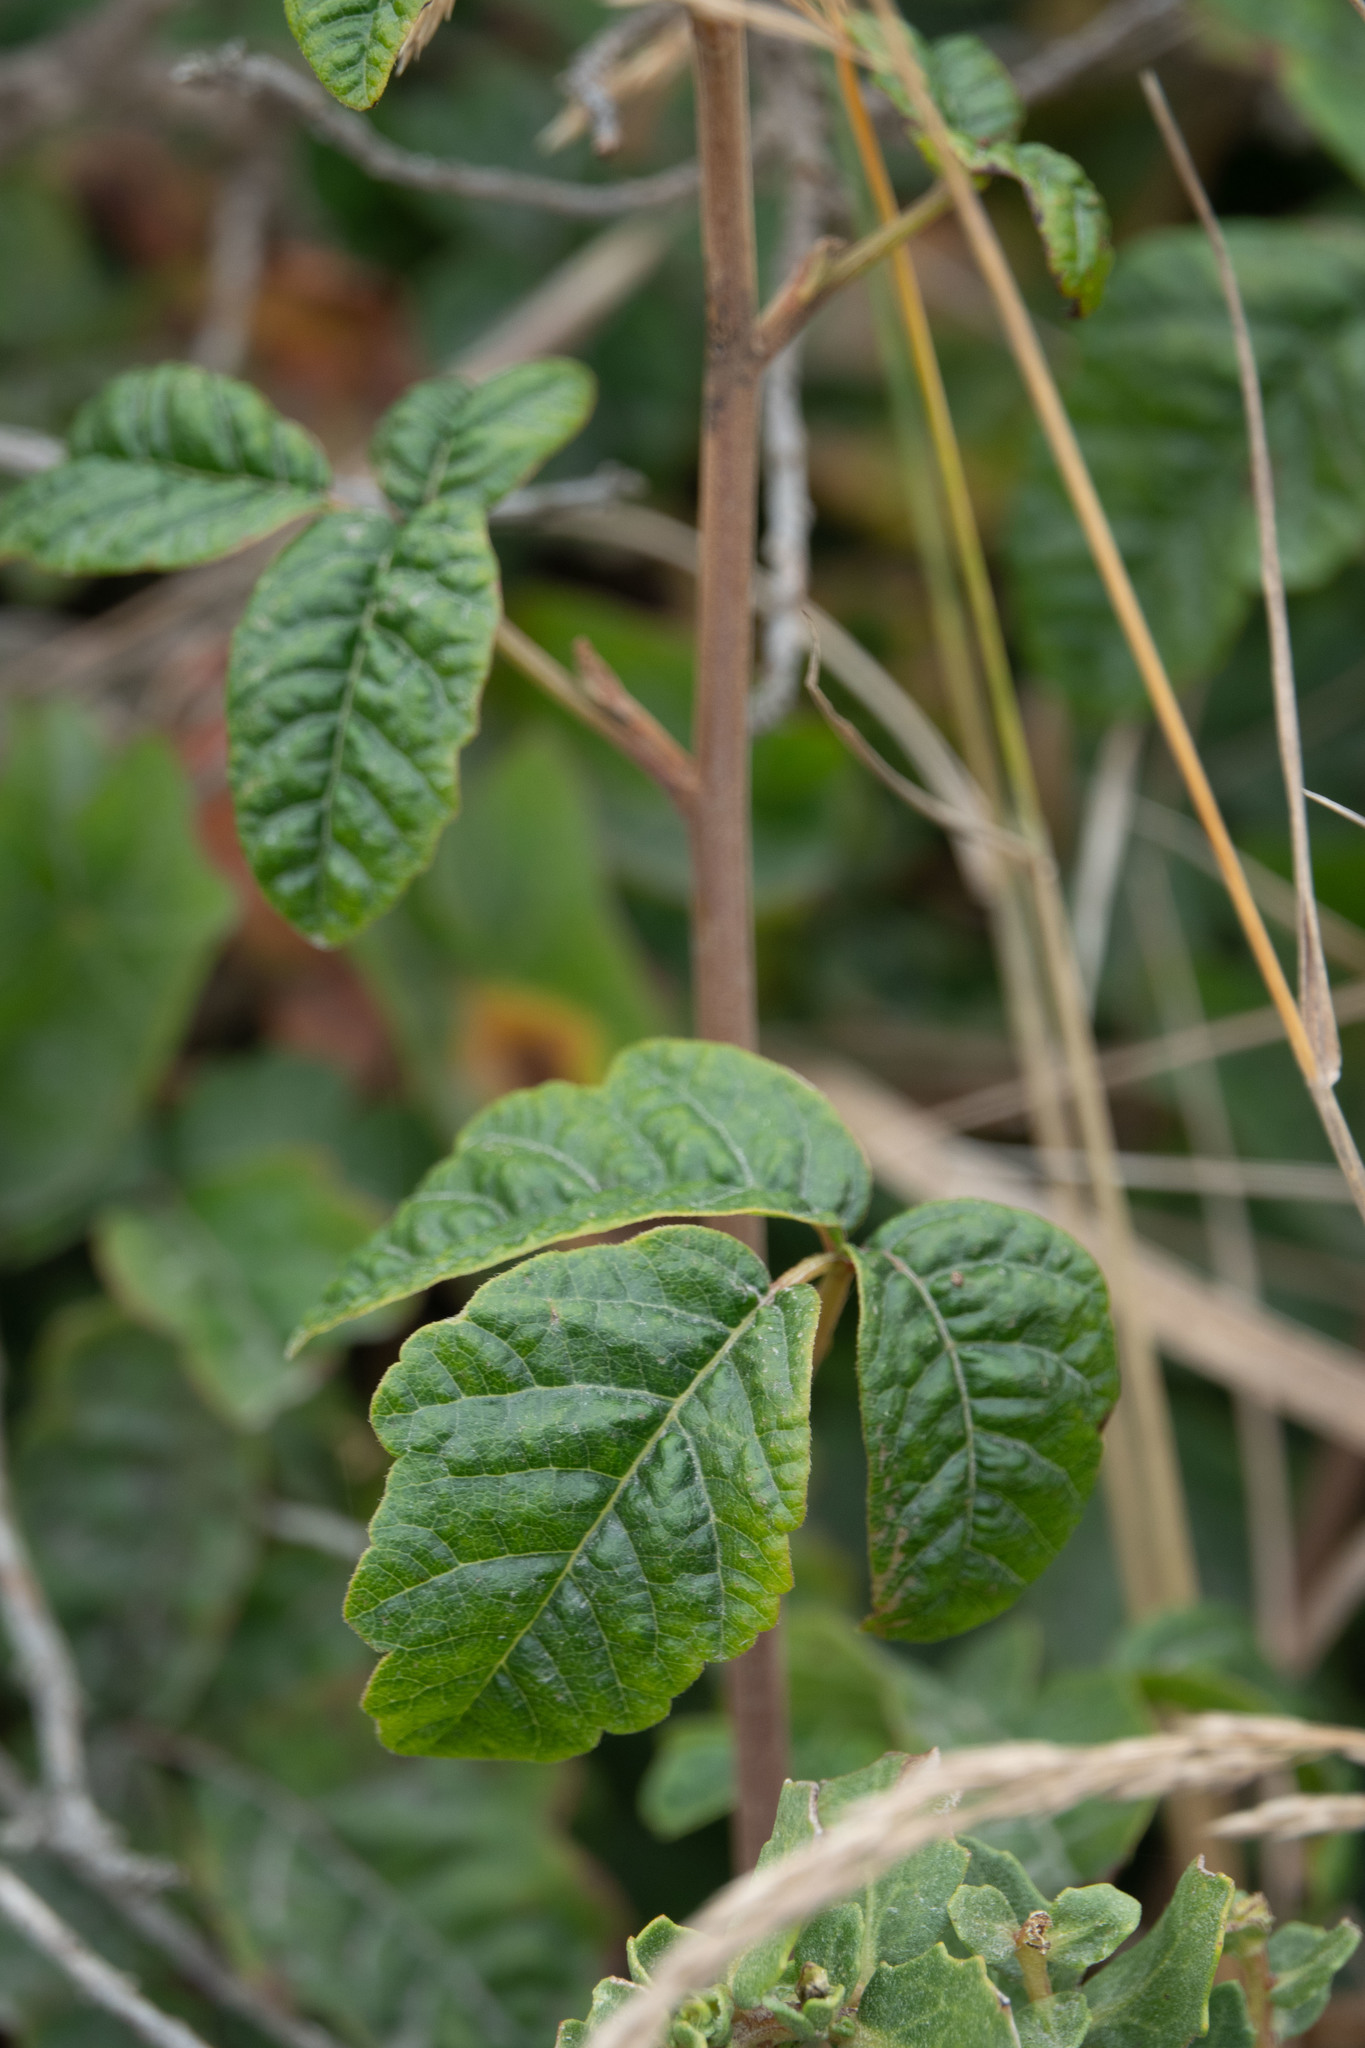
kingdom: Plantae
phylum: Tracheophyta
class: Magnoliopsida
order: Sapindales
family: Anacardiaceae
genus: Toxicodendron
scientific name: Toxicodendron diversilobum
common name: Pacific poison-oak
